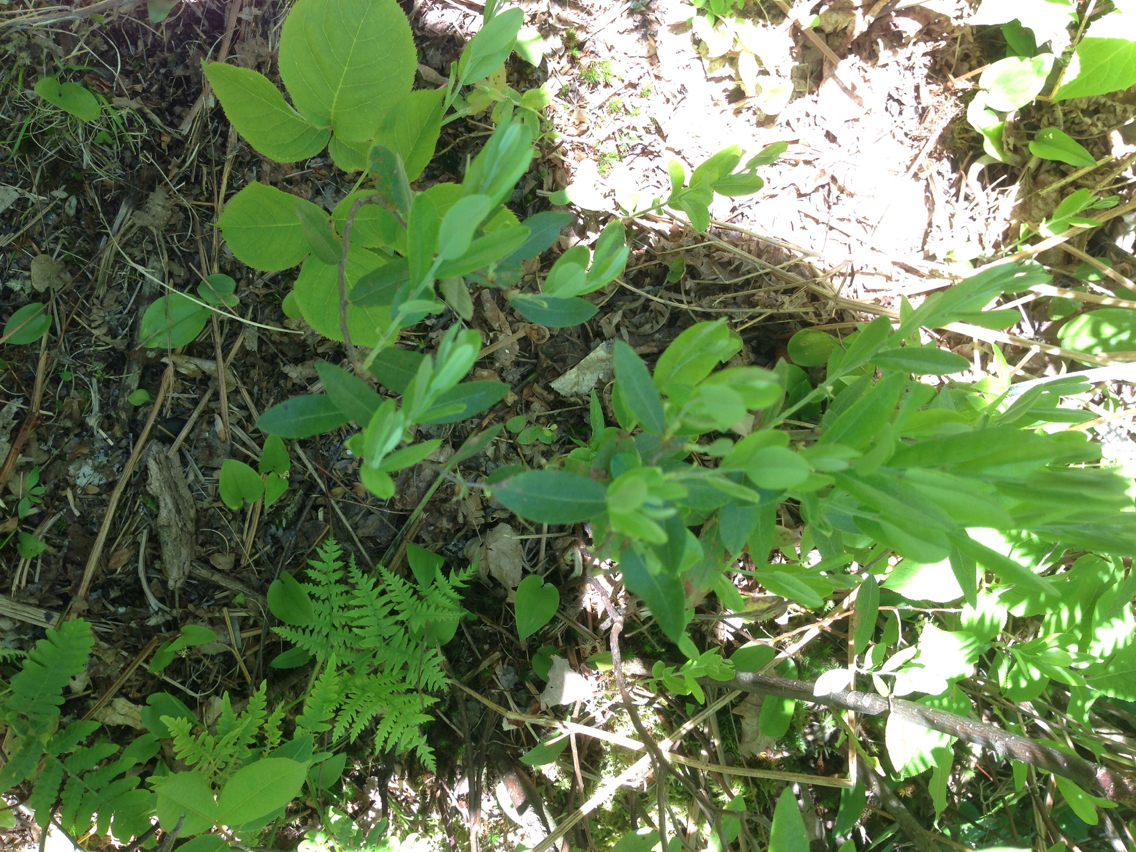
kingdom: Plantae
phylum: Tracheophyta
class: Magnoliopsida
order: Ericales
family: Ericaceae
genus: Chamaedaphne
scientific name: Chamaedaphne calyculata
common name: Leatherleaf
